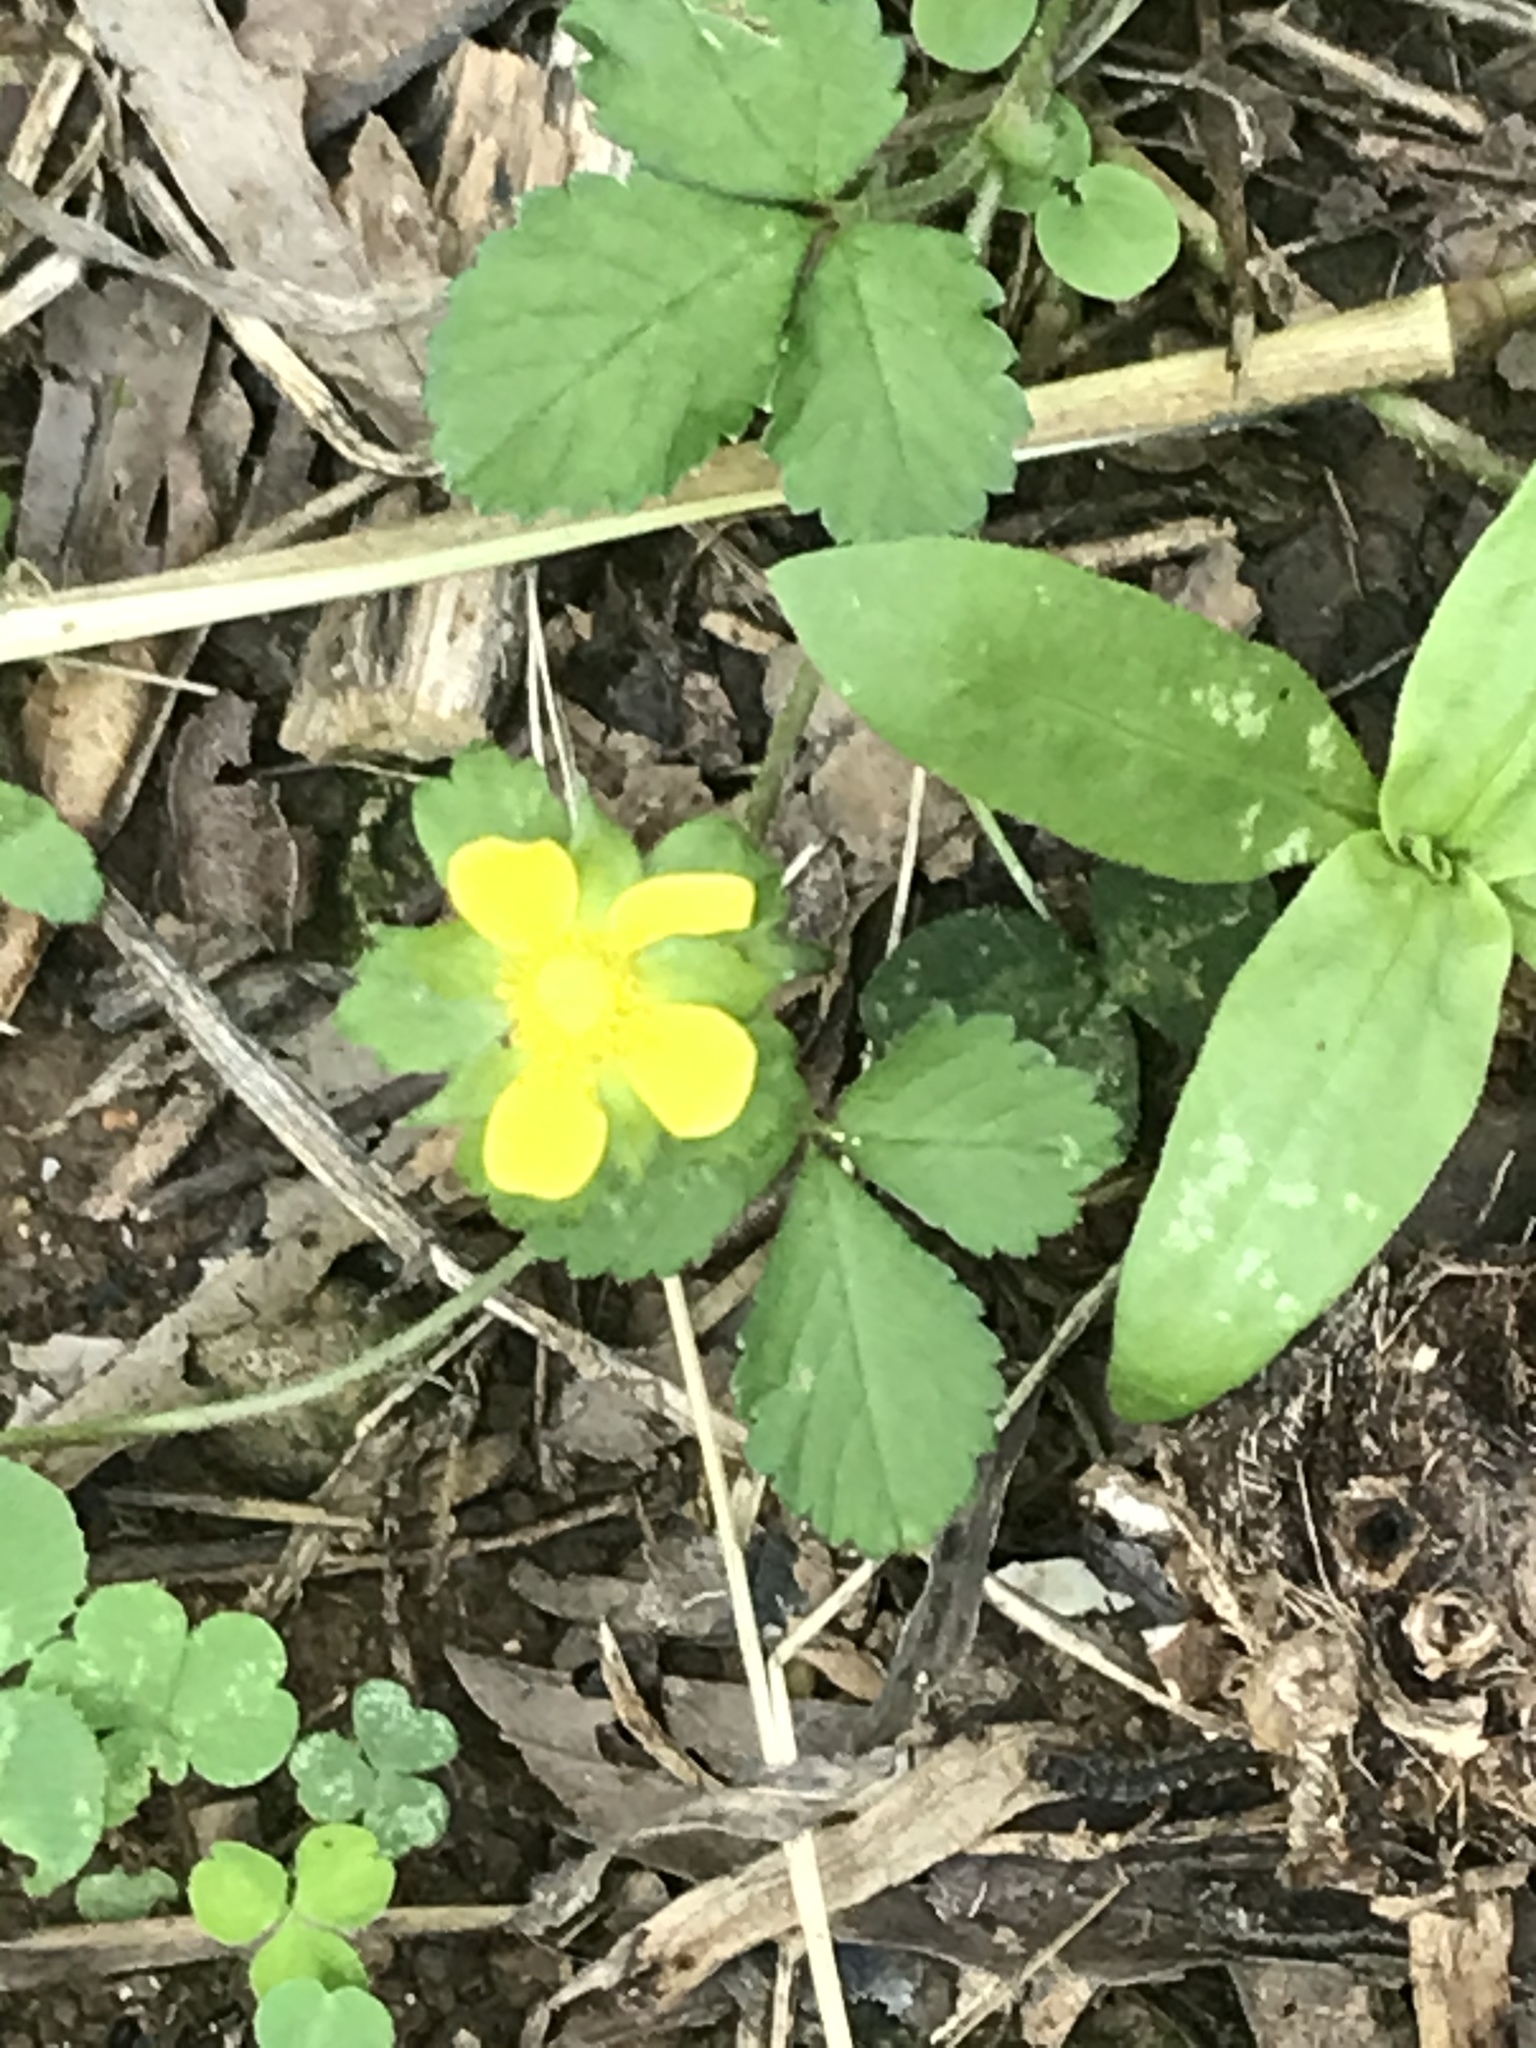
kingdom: Plantae
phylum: Tracheophyta
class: Magnoliopsida
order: Rosales
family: Rosaceae
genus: Potentilla
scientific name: Potentilla indica
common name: Yellow-flowered strawberry
